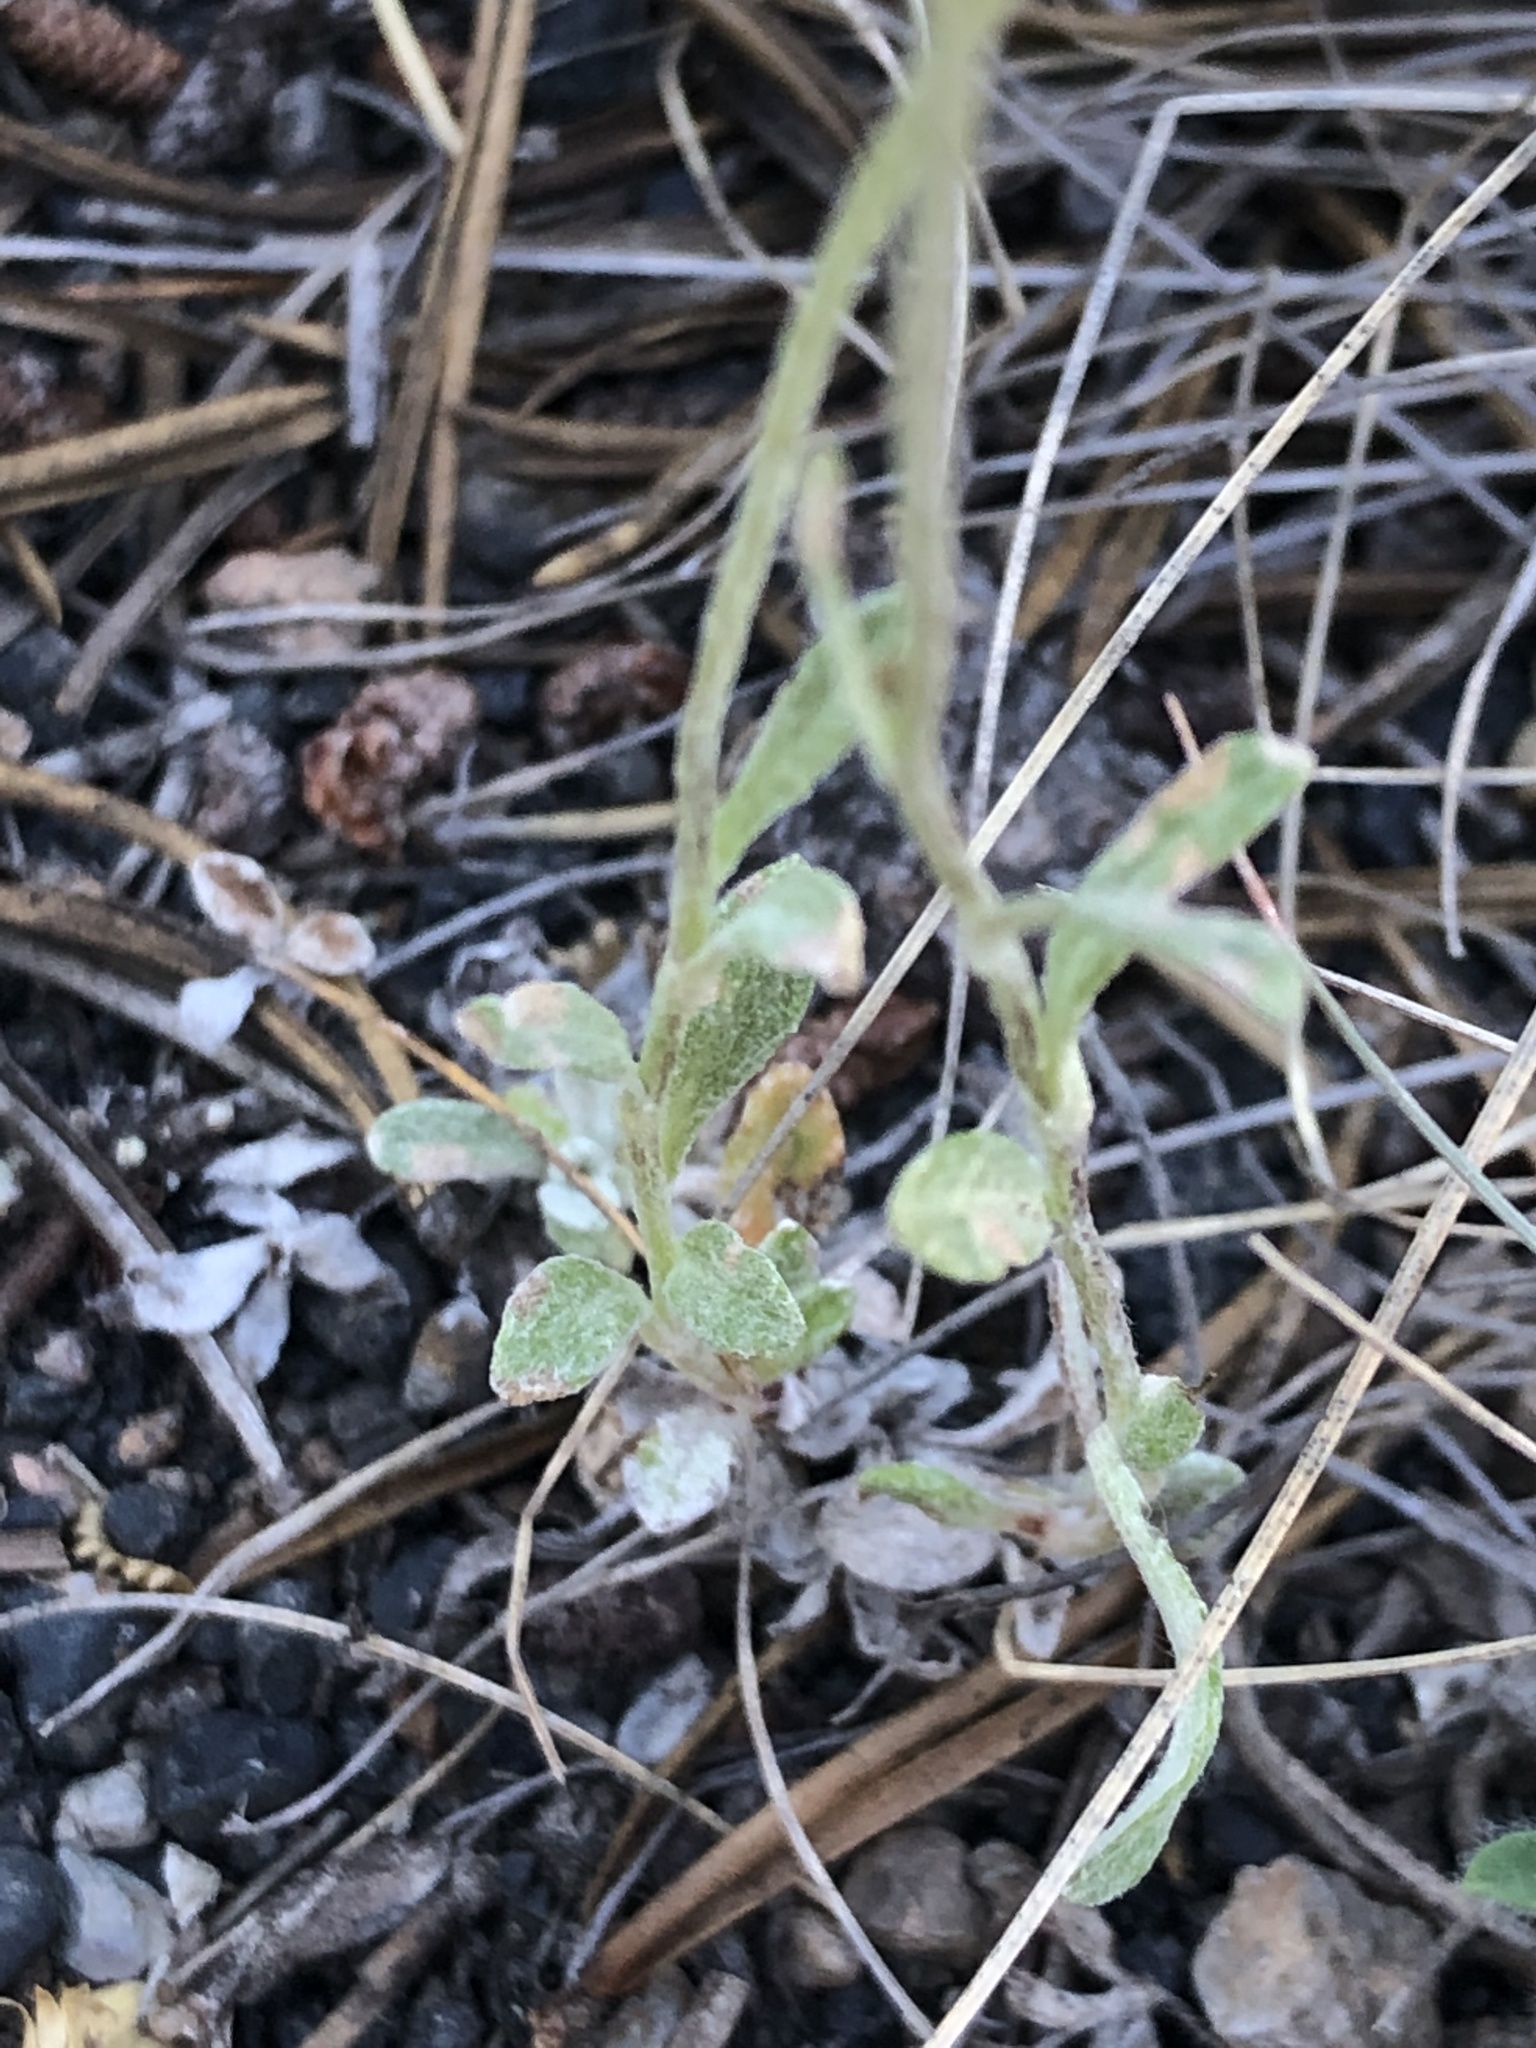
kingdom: Plantae
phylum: Tracheophyta
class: Magnoliopsida
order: Asterales
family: Asteraceae
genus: Eriophyllum
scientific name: Eriophyllum lanatum
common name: Common woolly-sunflower
